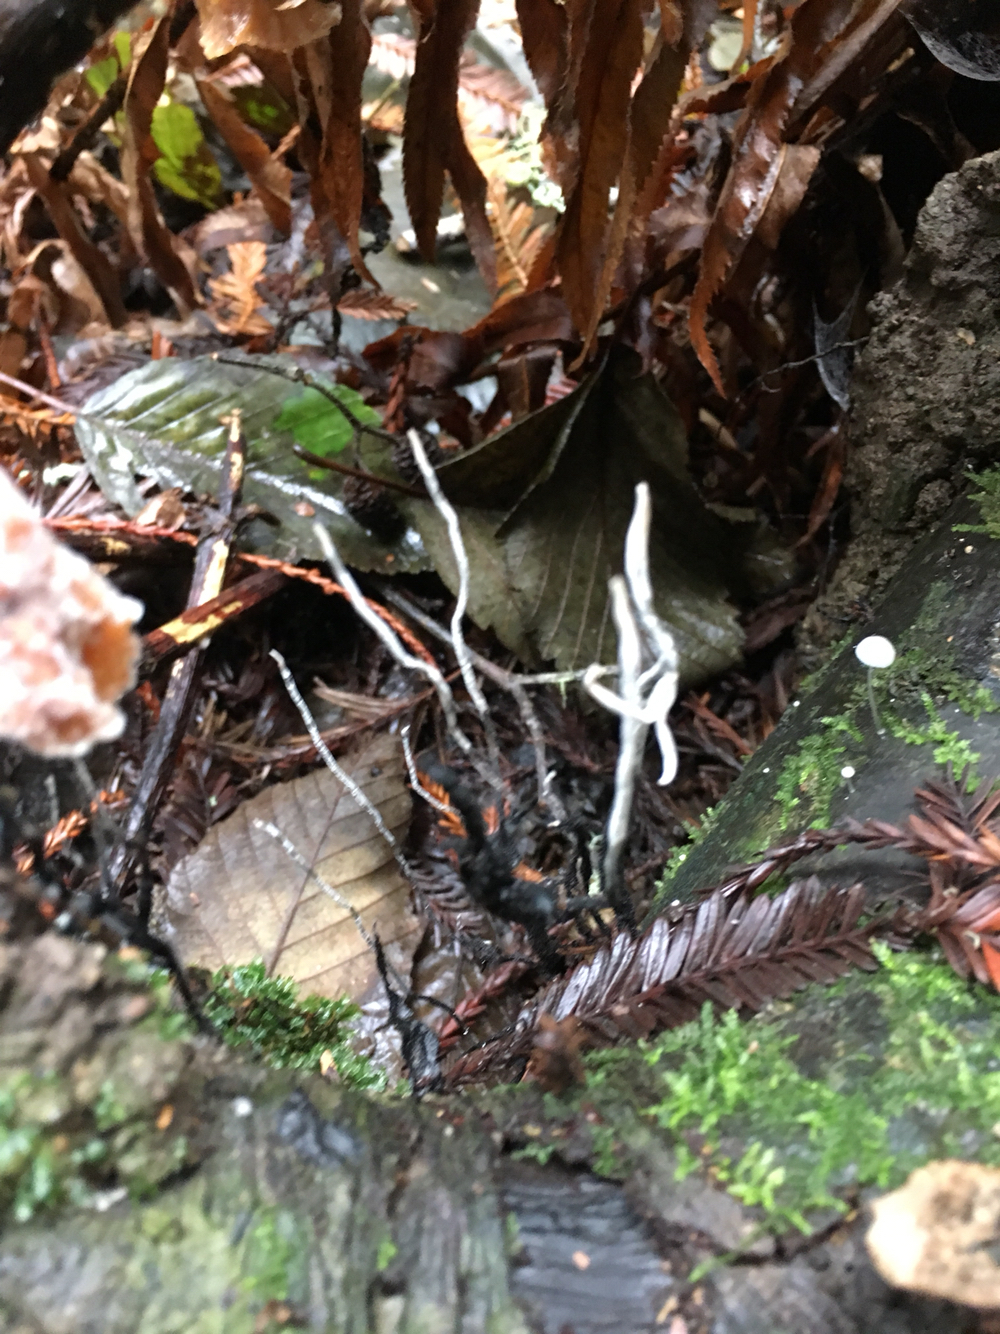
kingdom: Fungi
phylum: Ascomycota
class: Sordariomycetes
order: Xylariales
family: Xylariaceae
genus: Xylaria
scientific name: Xylaria hypoxylon
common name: Candle-snuff fungus
